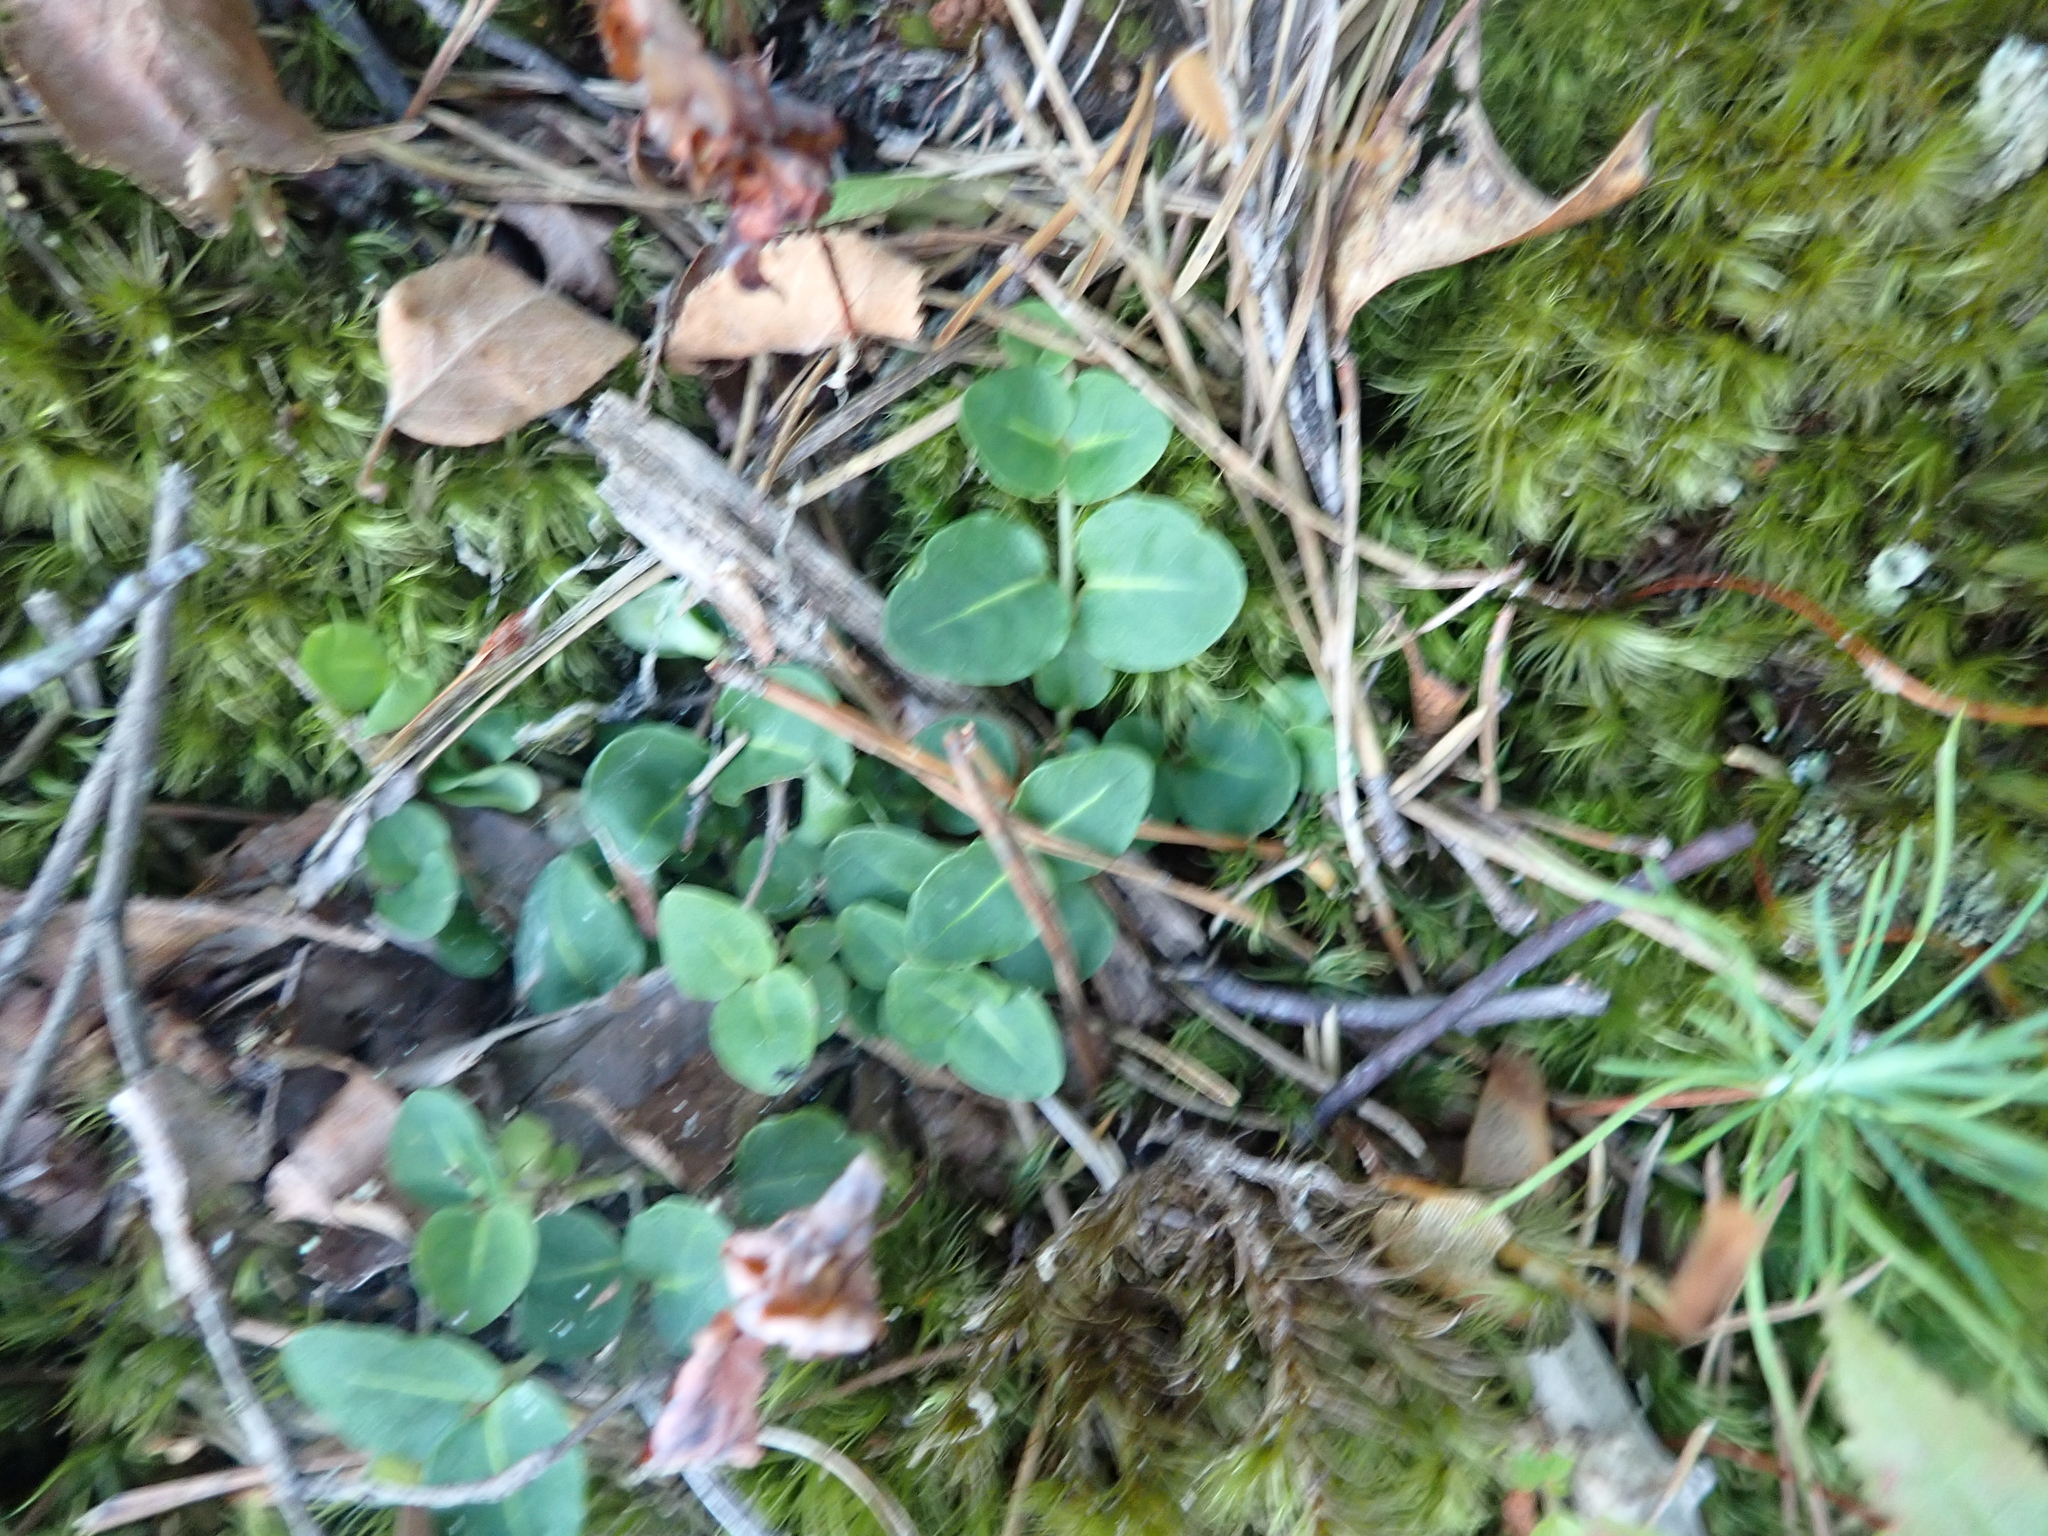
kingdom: Plantae
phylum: Tracheophyta
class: Magnoliopsida
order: Gentianales
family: Rubiaceae
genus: Mitchella
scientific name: Mitchella repens
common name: Partridge-berry
